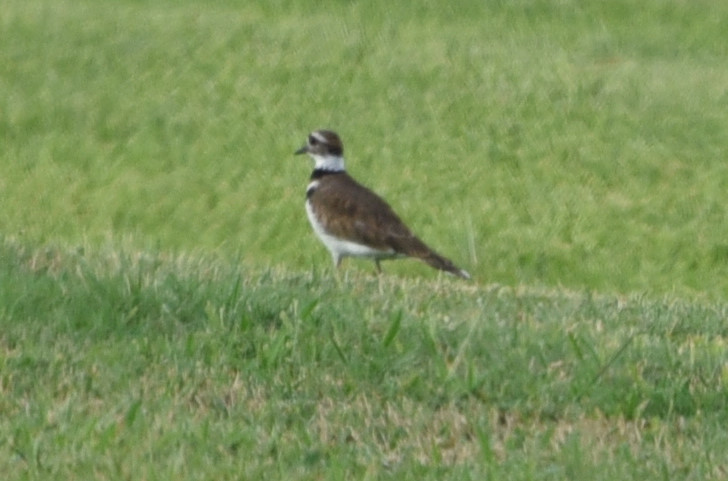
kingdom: Animalia
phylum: Chordata
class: Aves
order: Charadriiformes
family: Charadriidae
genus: Charadrius
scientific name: Charadrius vociferus
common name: Killdeer
